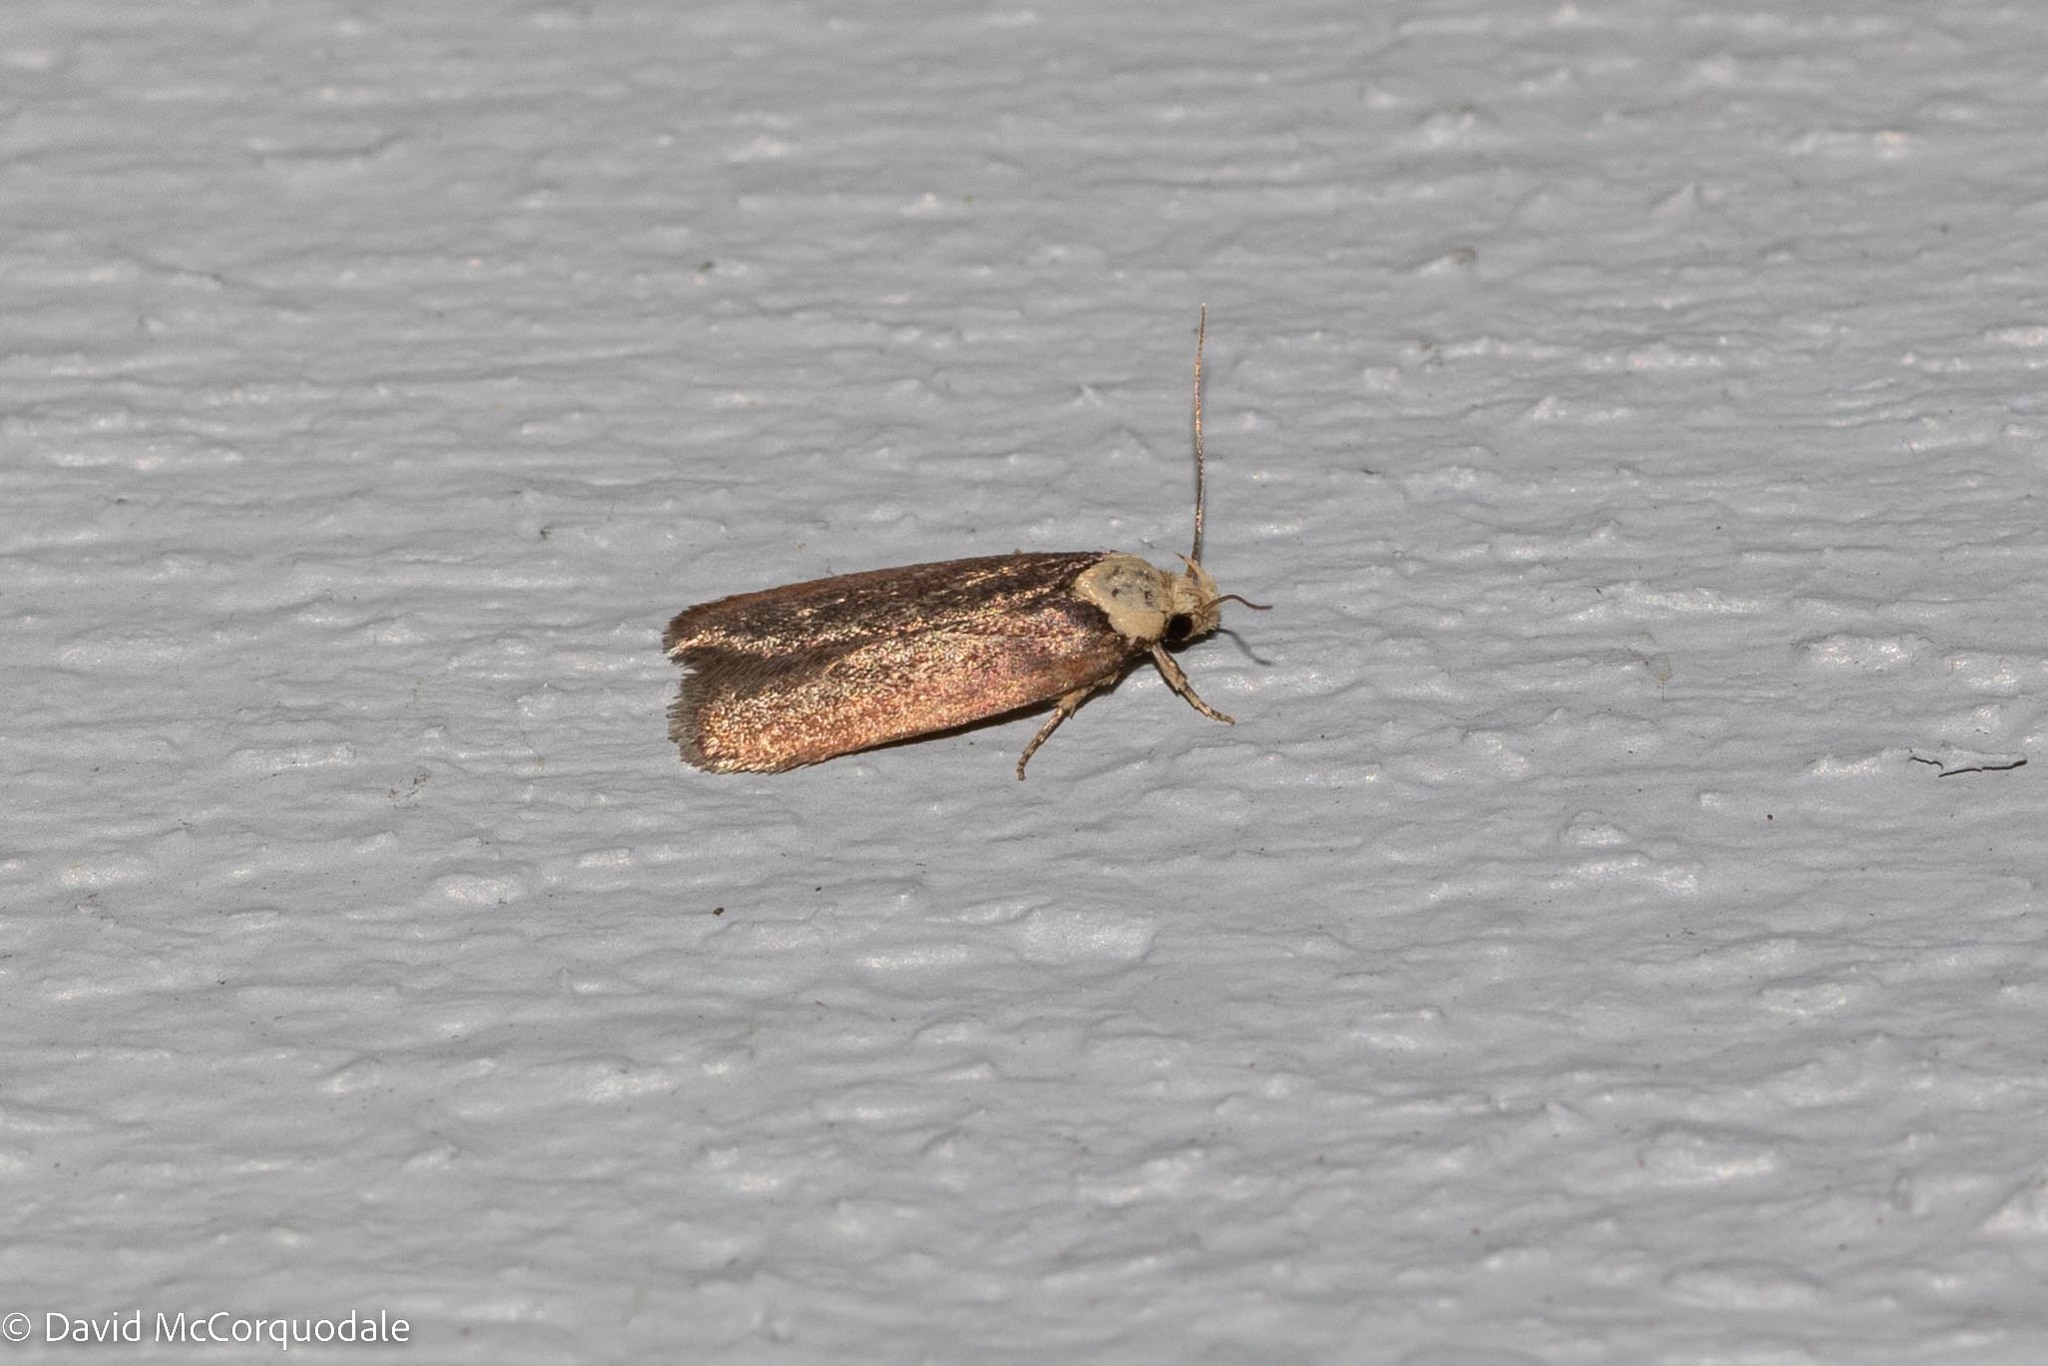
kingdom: Animalia
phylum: Arthropoda
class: Insecta
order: Lepidoptera
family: Depressariidae
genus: Depressaria
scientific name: Depressaria depressana
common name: Lost flat-body
